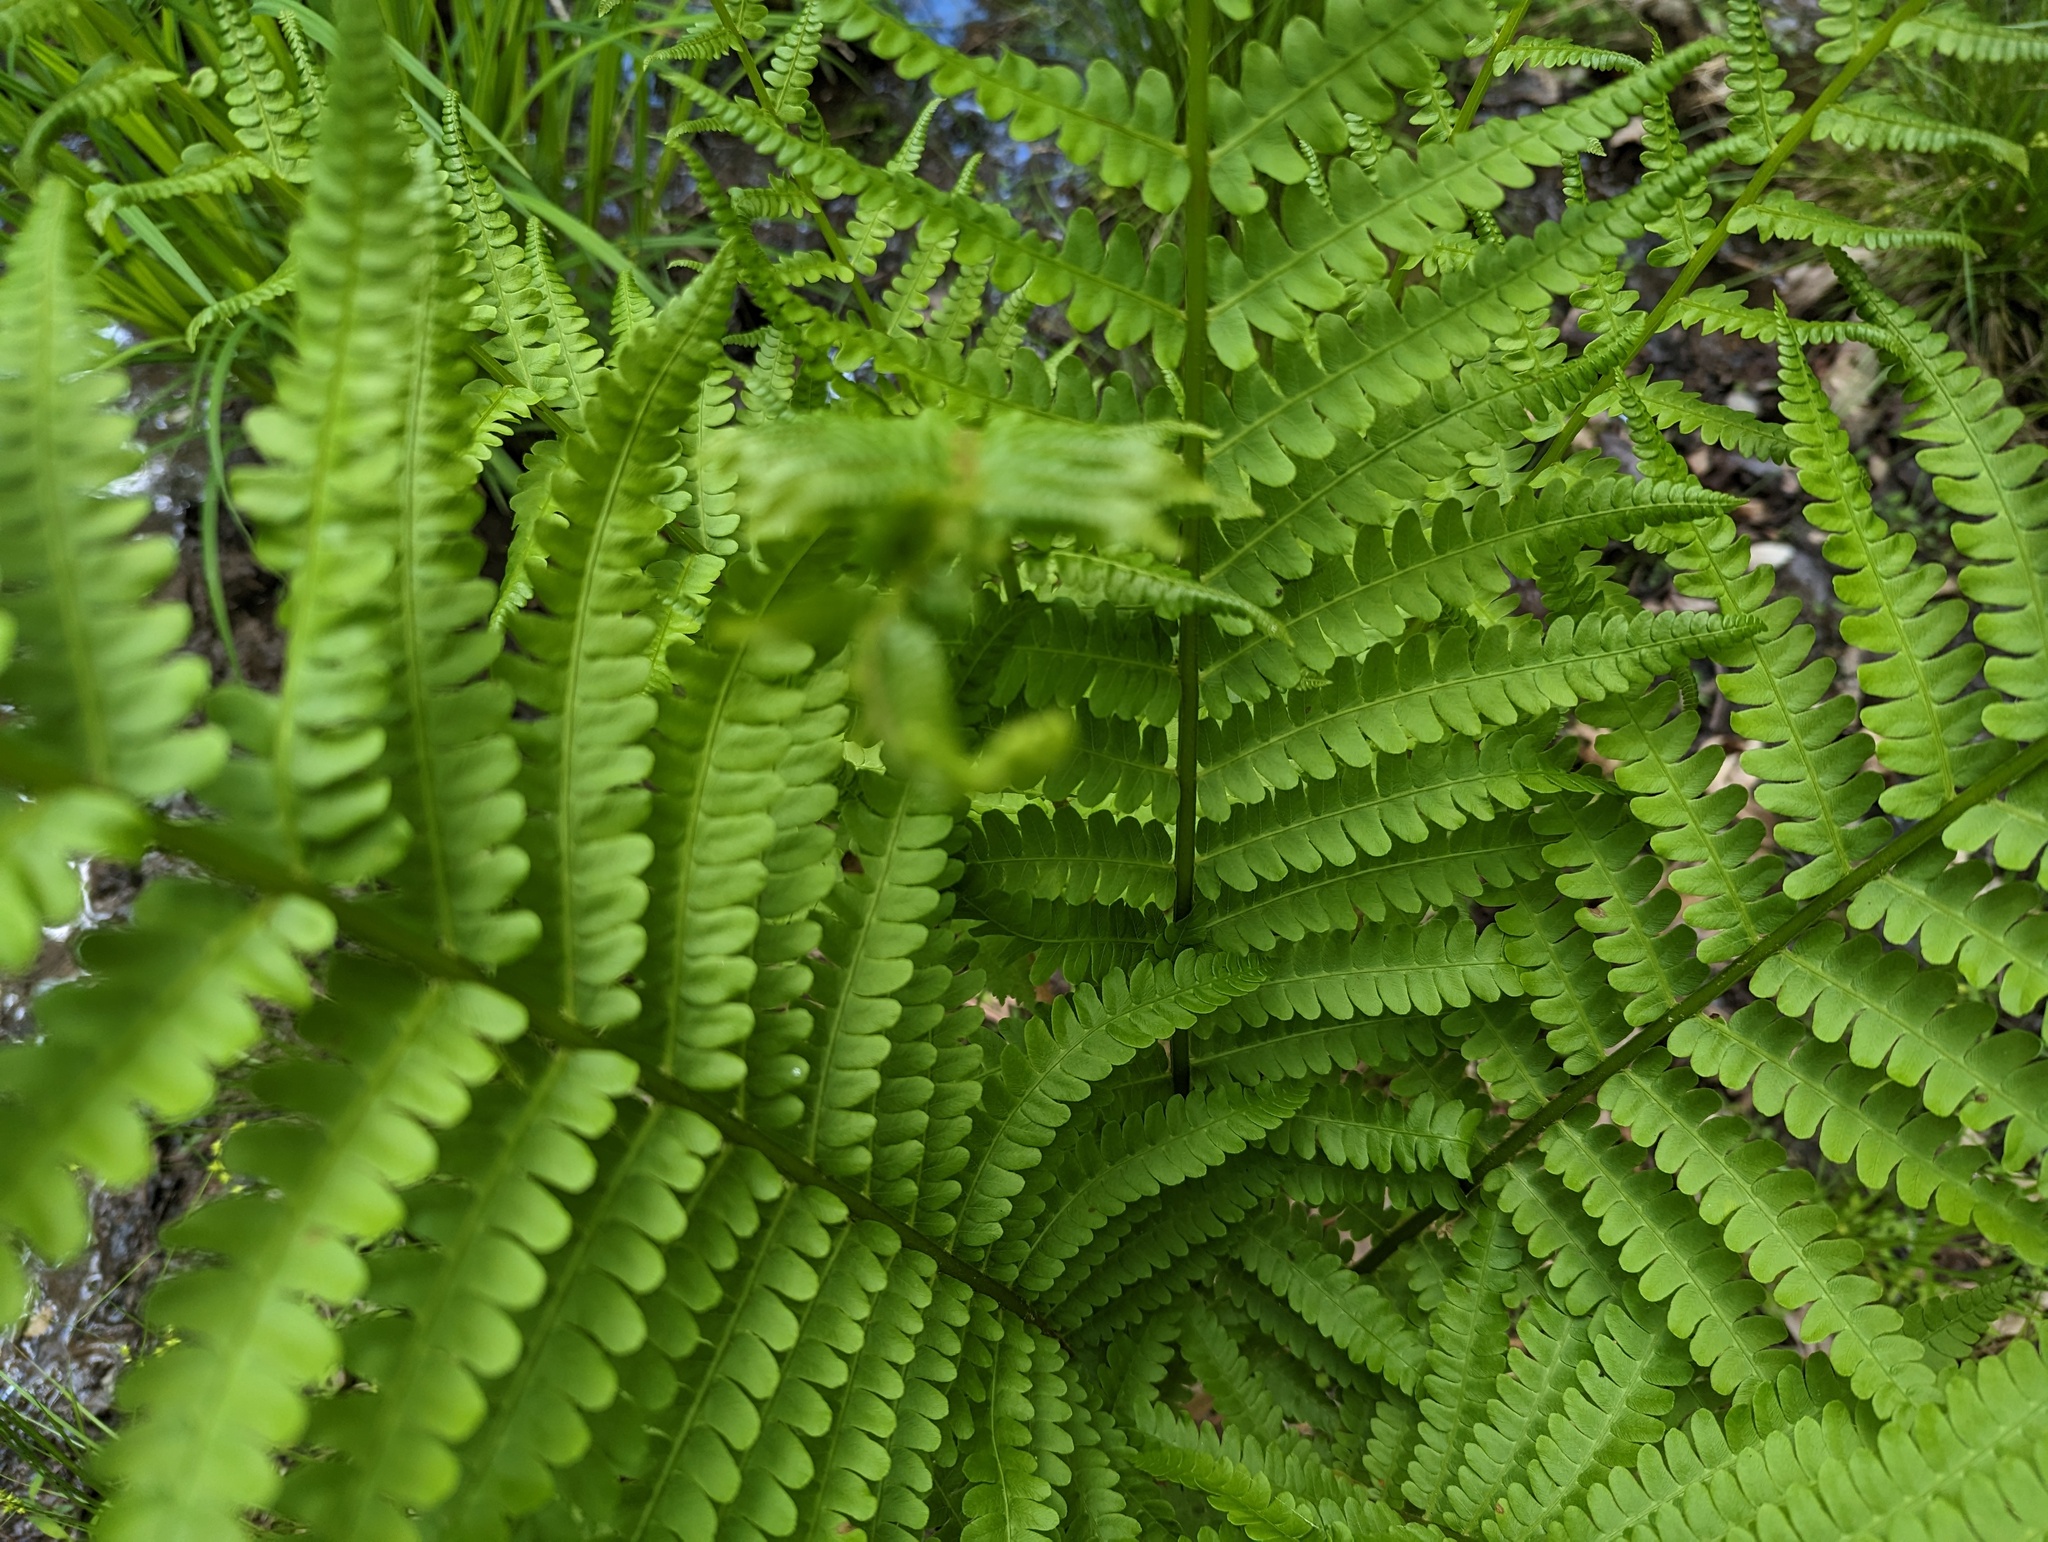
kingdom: Plantae
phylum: Tracheophyta
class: Polypodiopsida
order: Osmundales
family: Osmundaceae
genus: Osmundastrum
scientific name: Osmundastrum cinnamomeum
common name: Cinnamon fern
